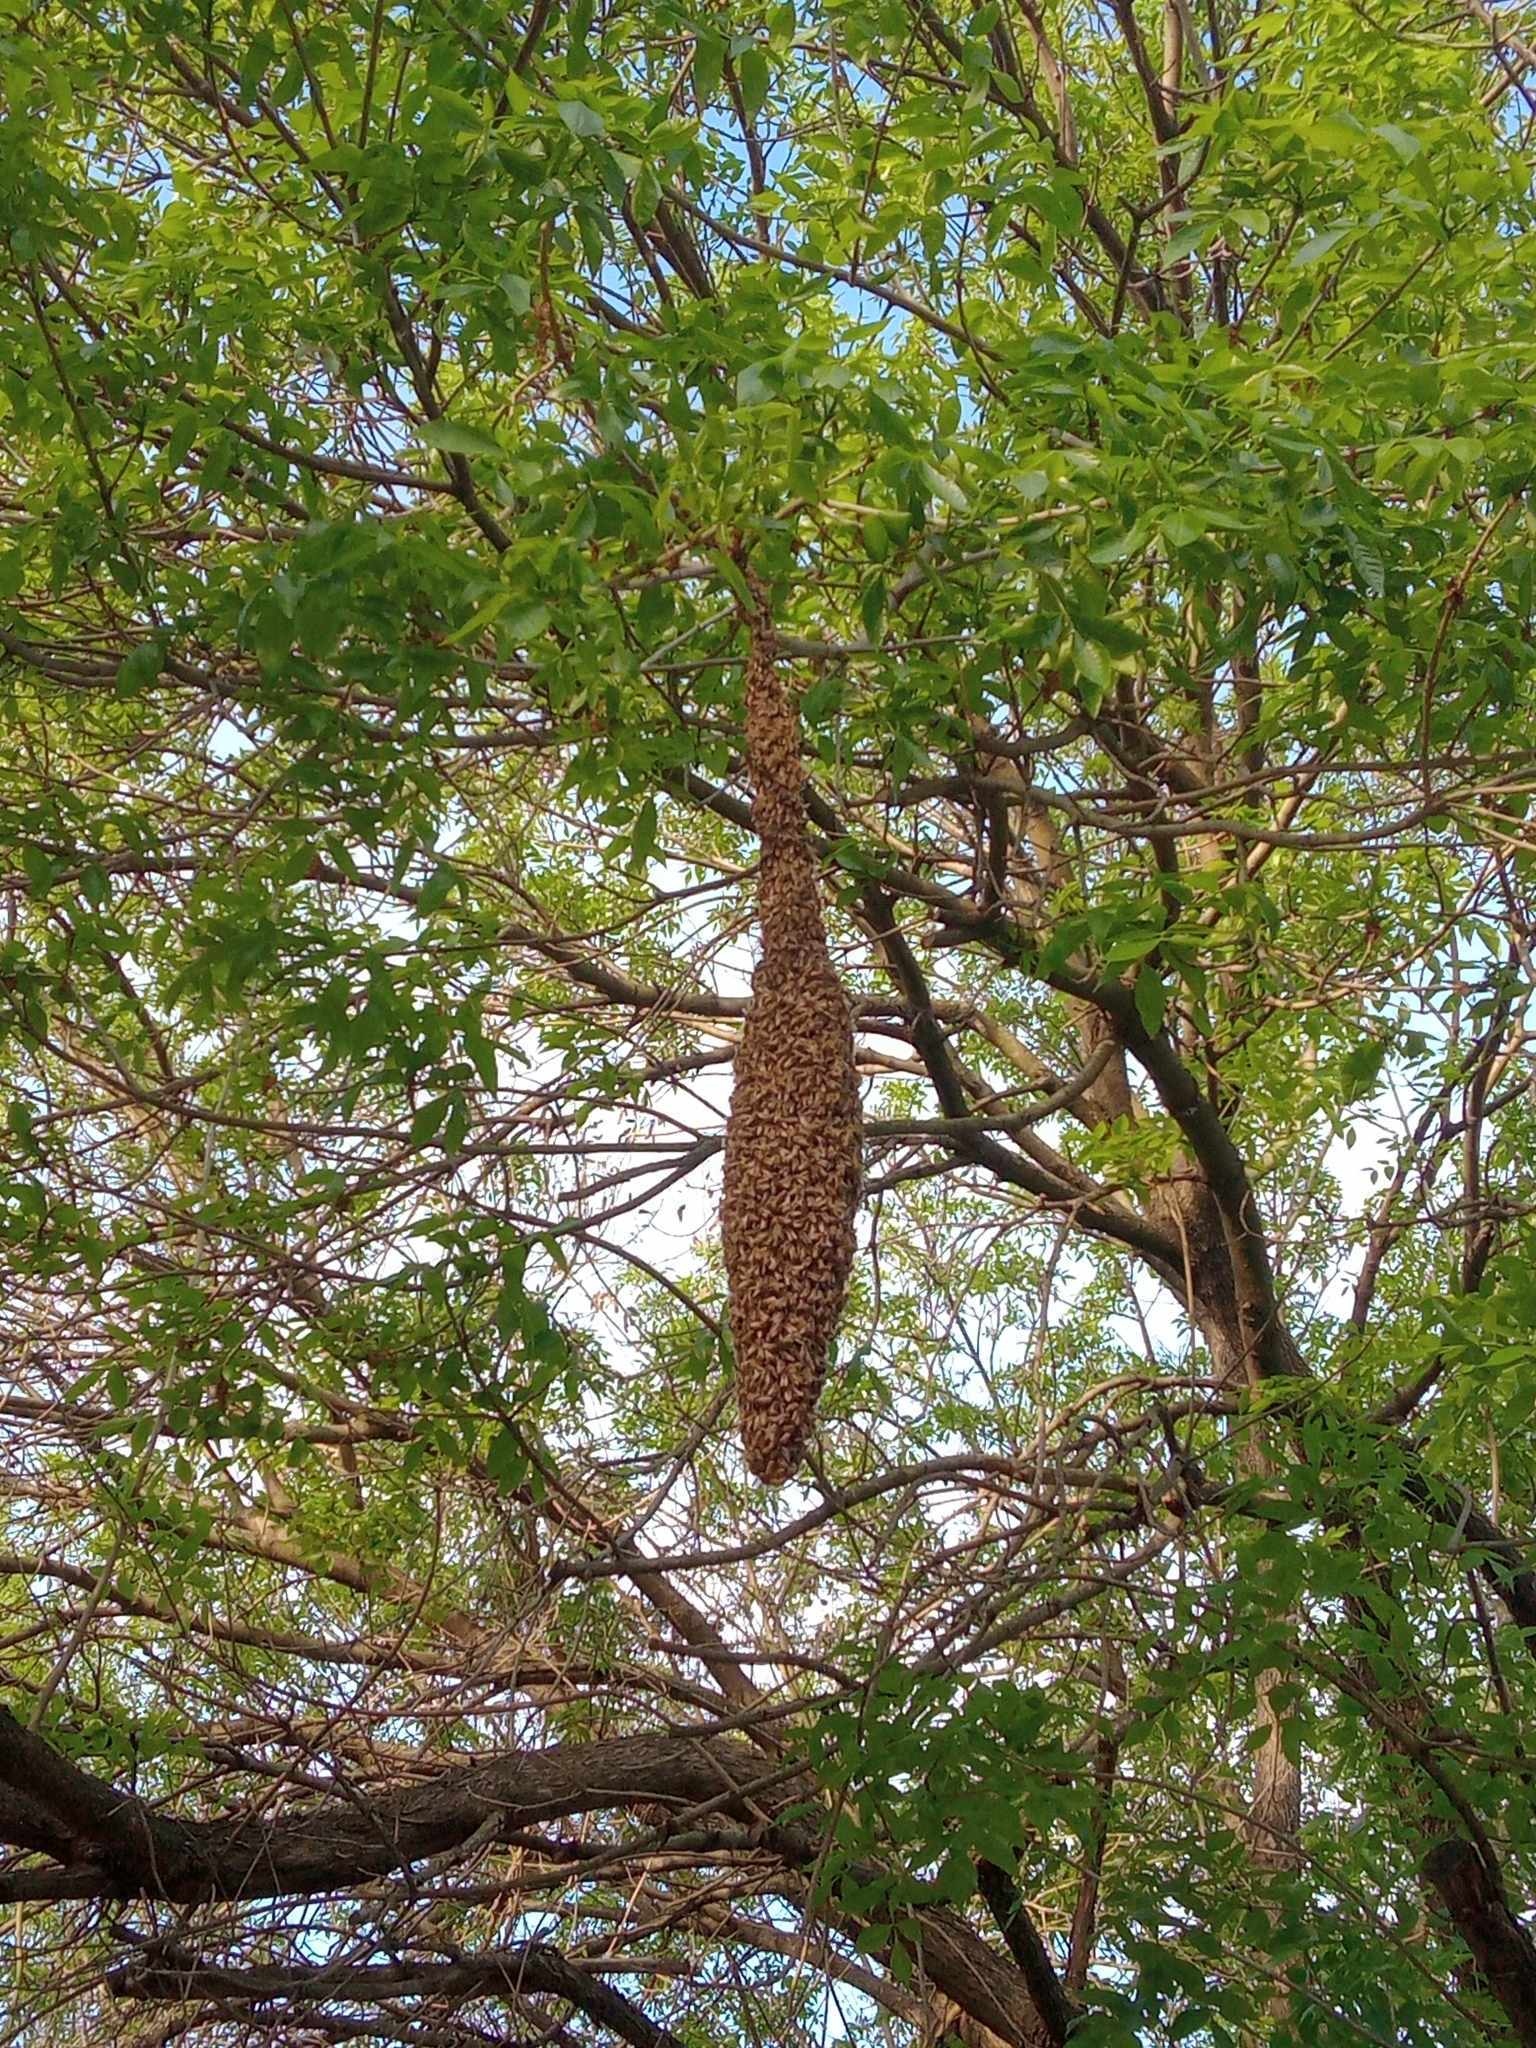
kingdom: Animalia
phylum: Arthropoda
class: Insecta
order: Hymenoptera
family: Apidae
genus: Apis
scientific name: Apis mellifera
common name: Honey bee
